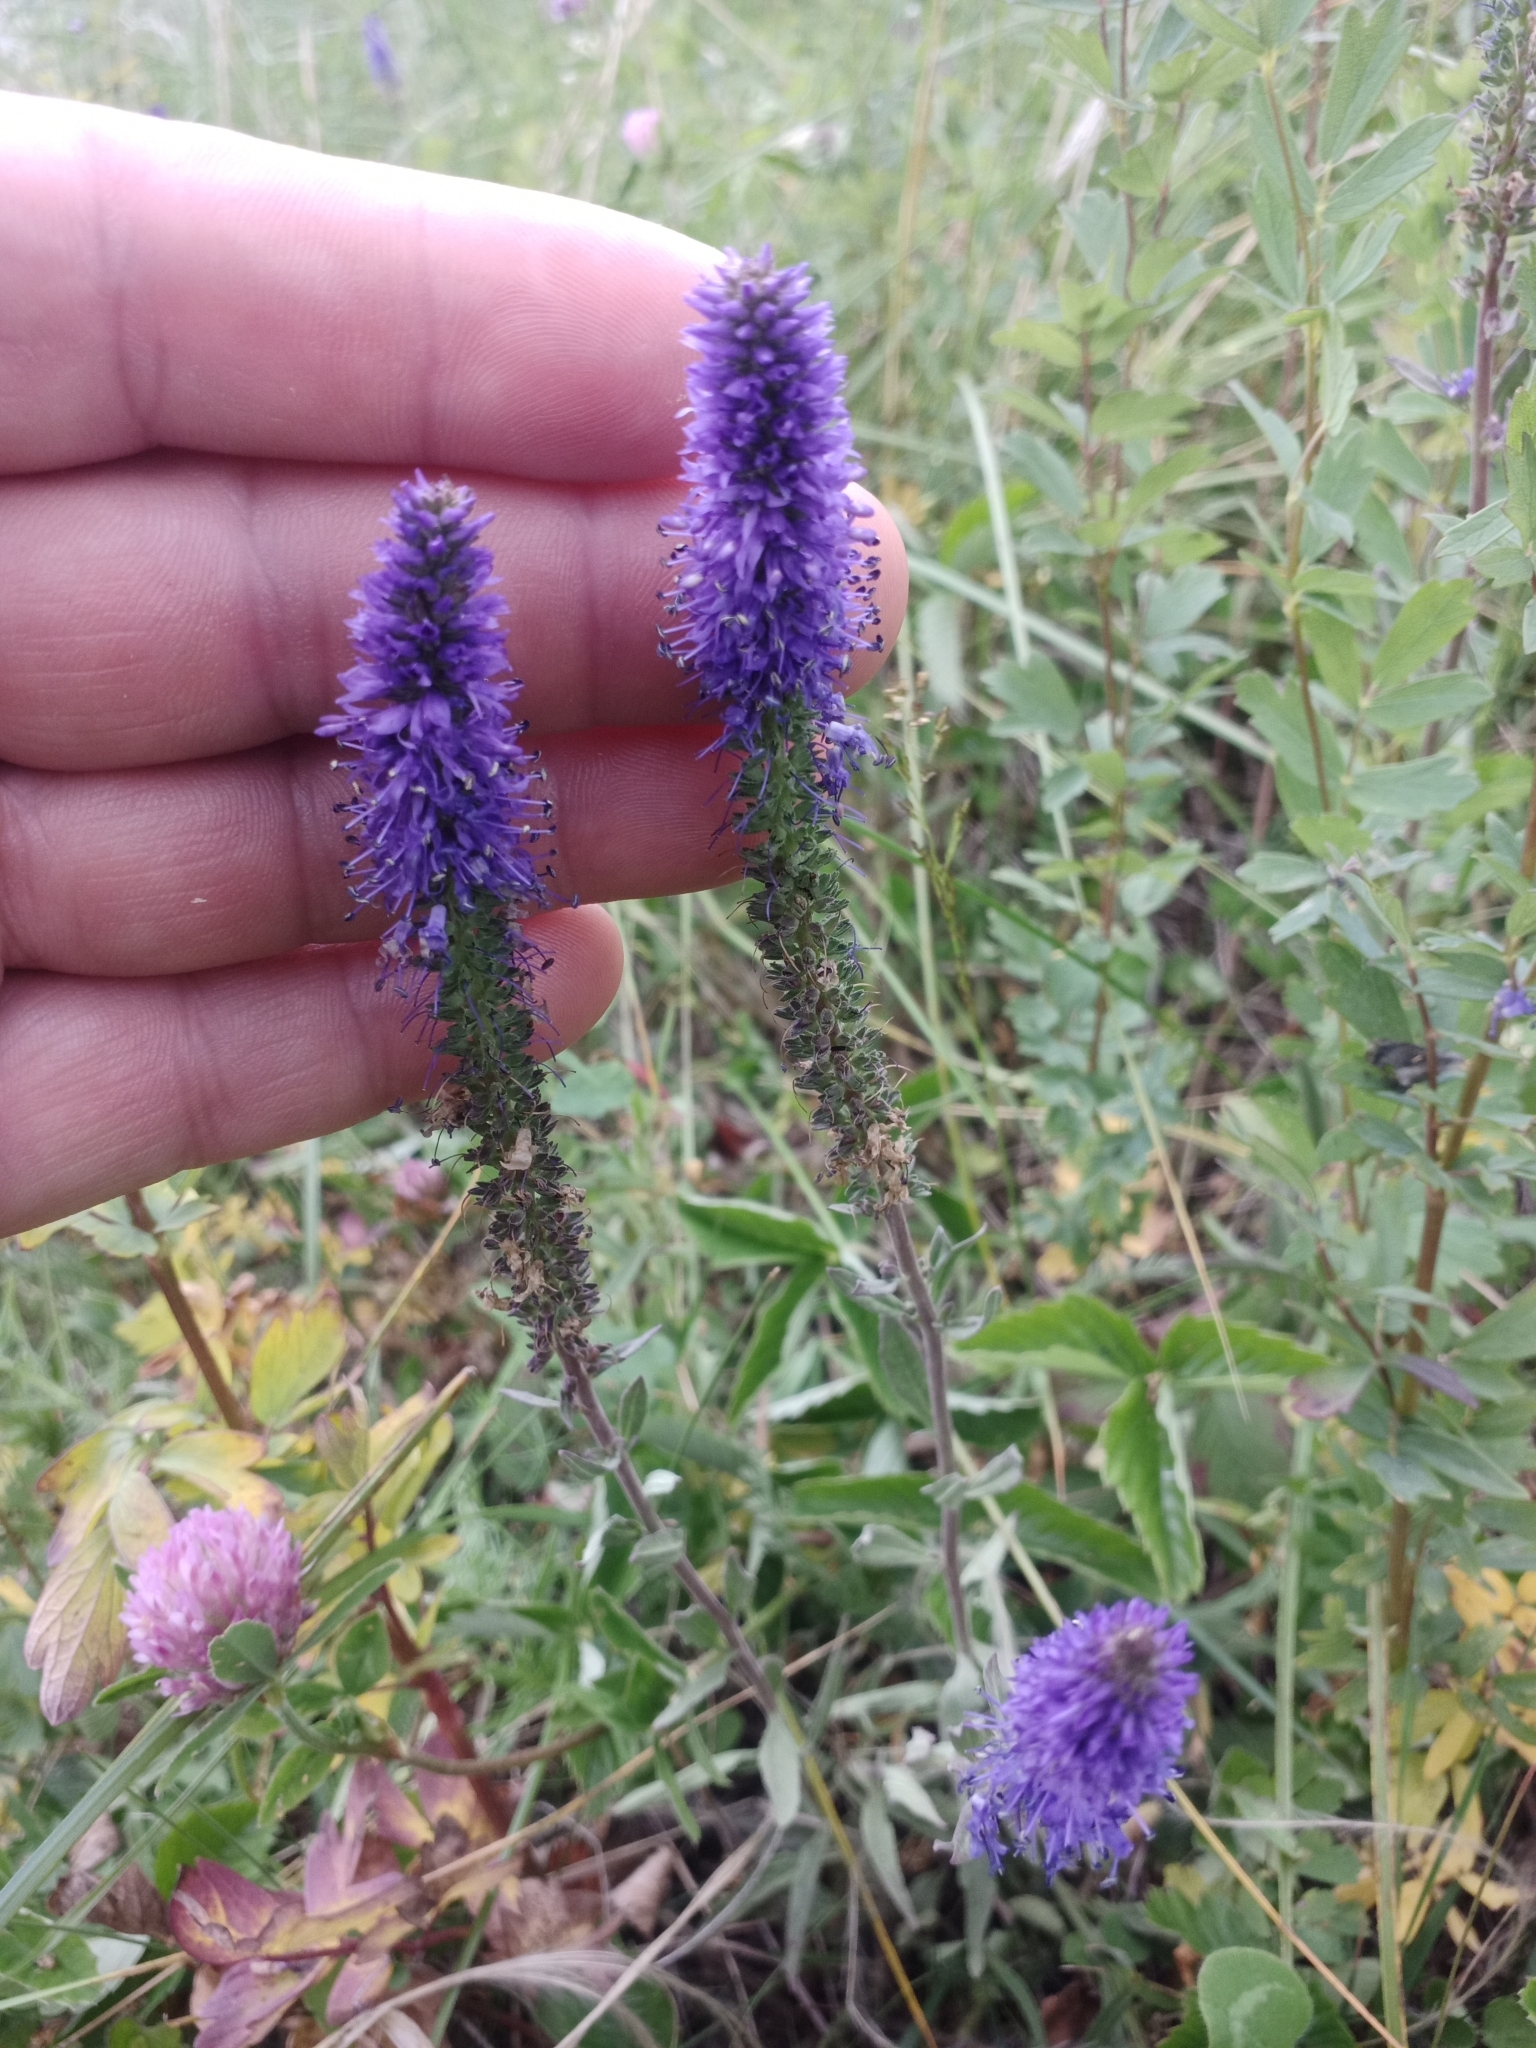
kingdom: Plantae
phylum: Tracheophyta
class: Magnoliopsida
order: Lamiales
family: Plantaginaceae
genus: Veronica
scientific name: Veronica spicata
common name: Spiked speedwell
